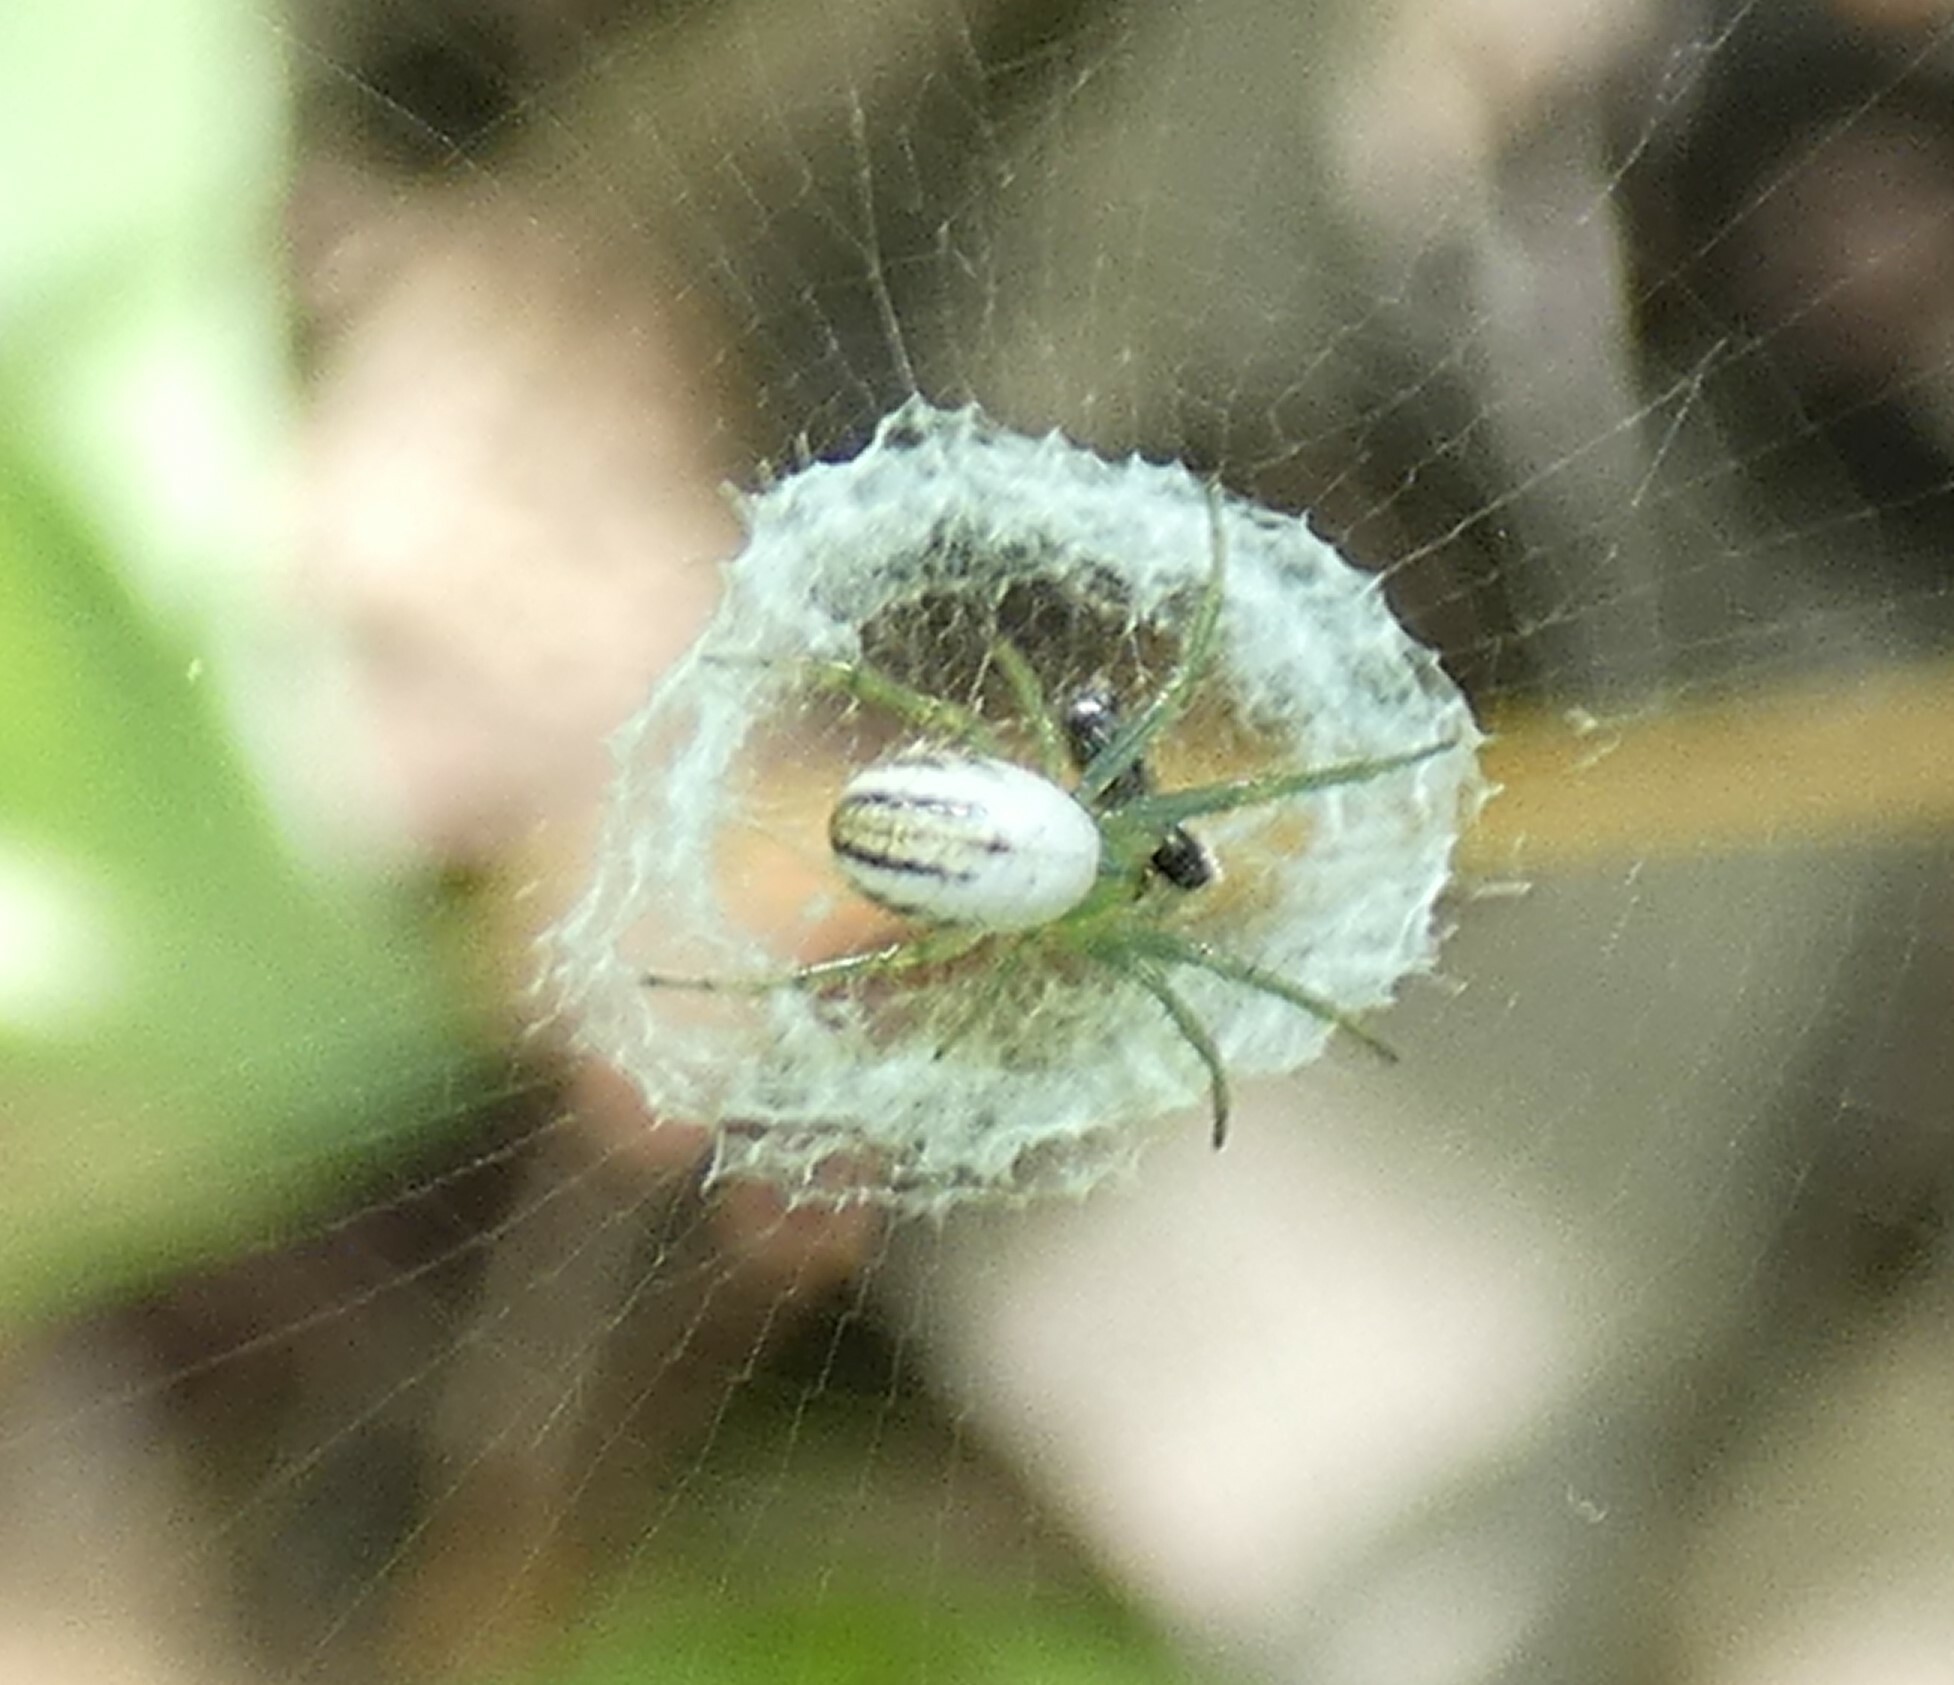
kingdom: Animalia
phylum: Arthropoda
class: Arachnida
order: Araneae
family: Araneidae
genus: Mangora
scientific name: Mangora gibberosa
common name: Lined orbweaver
